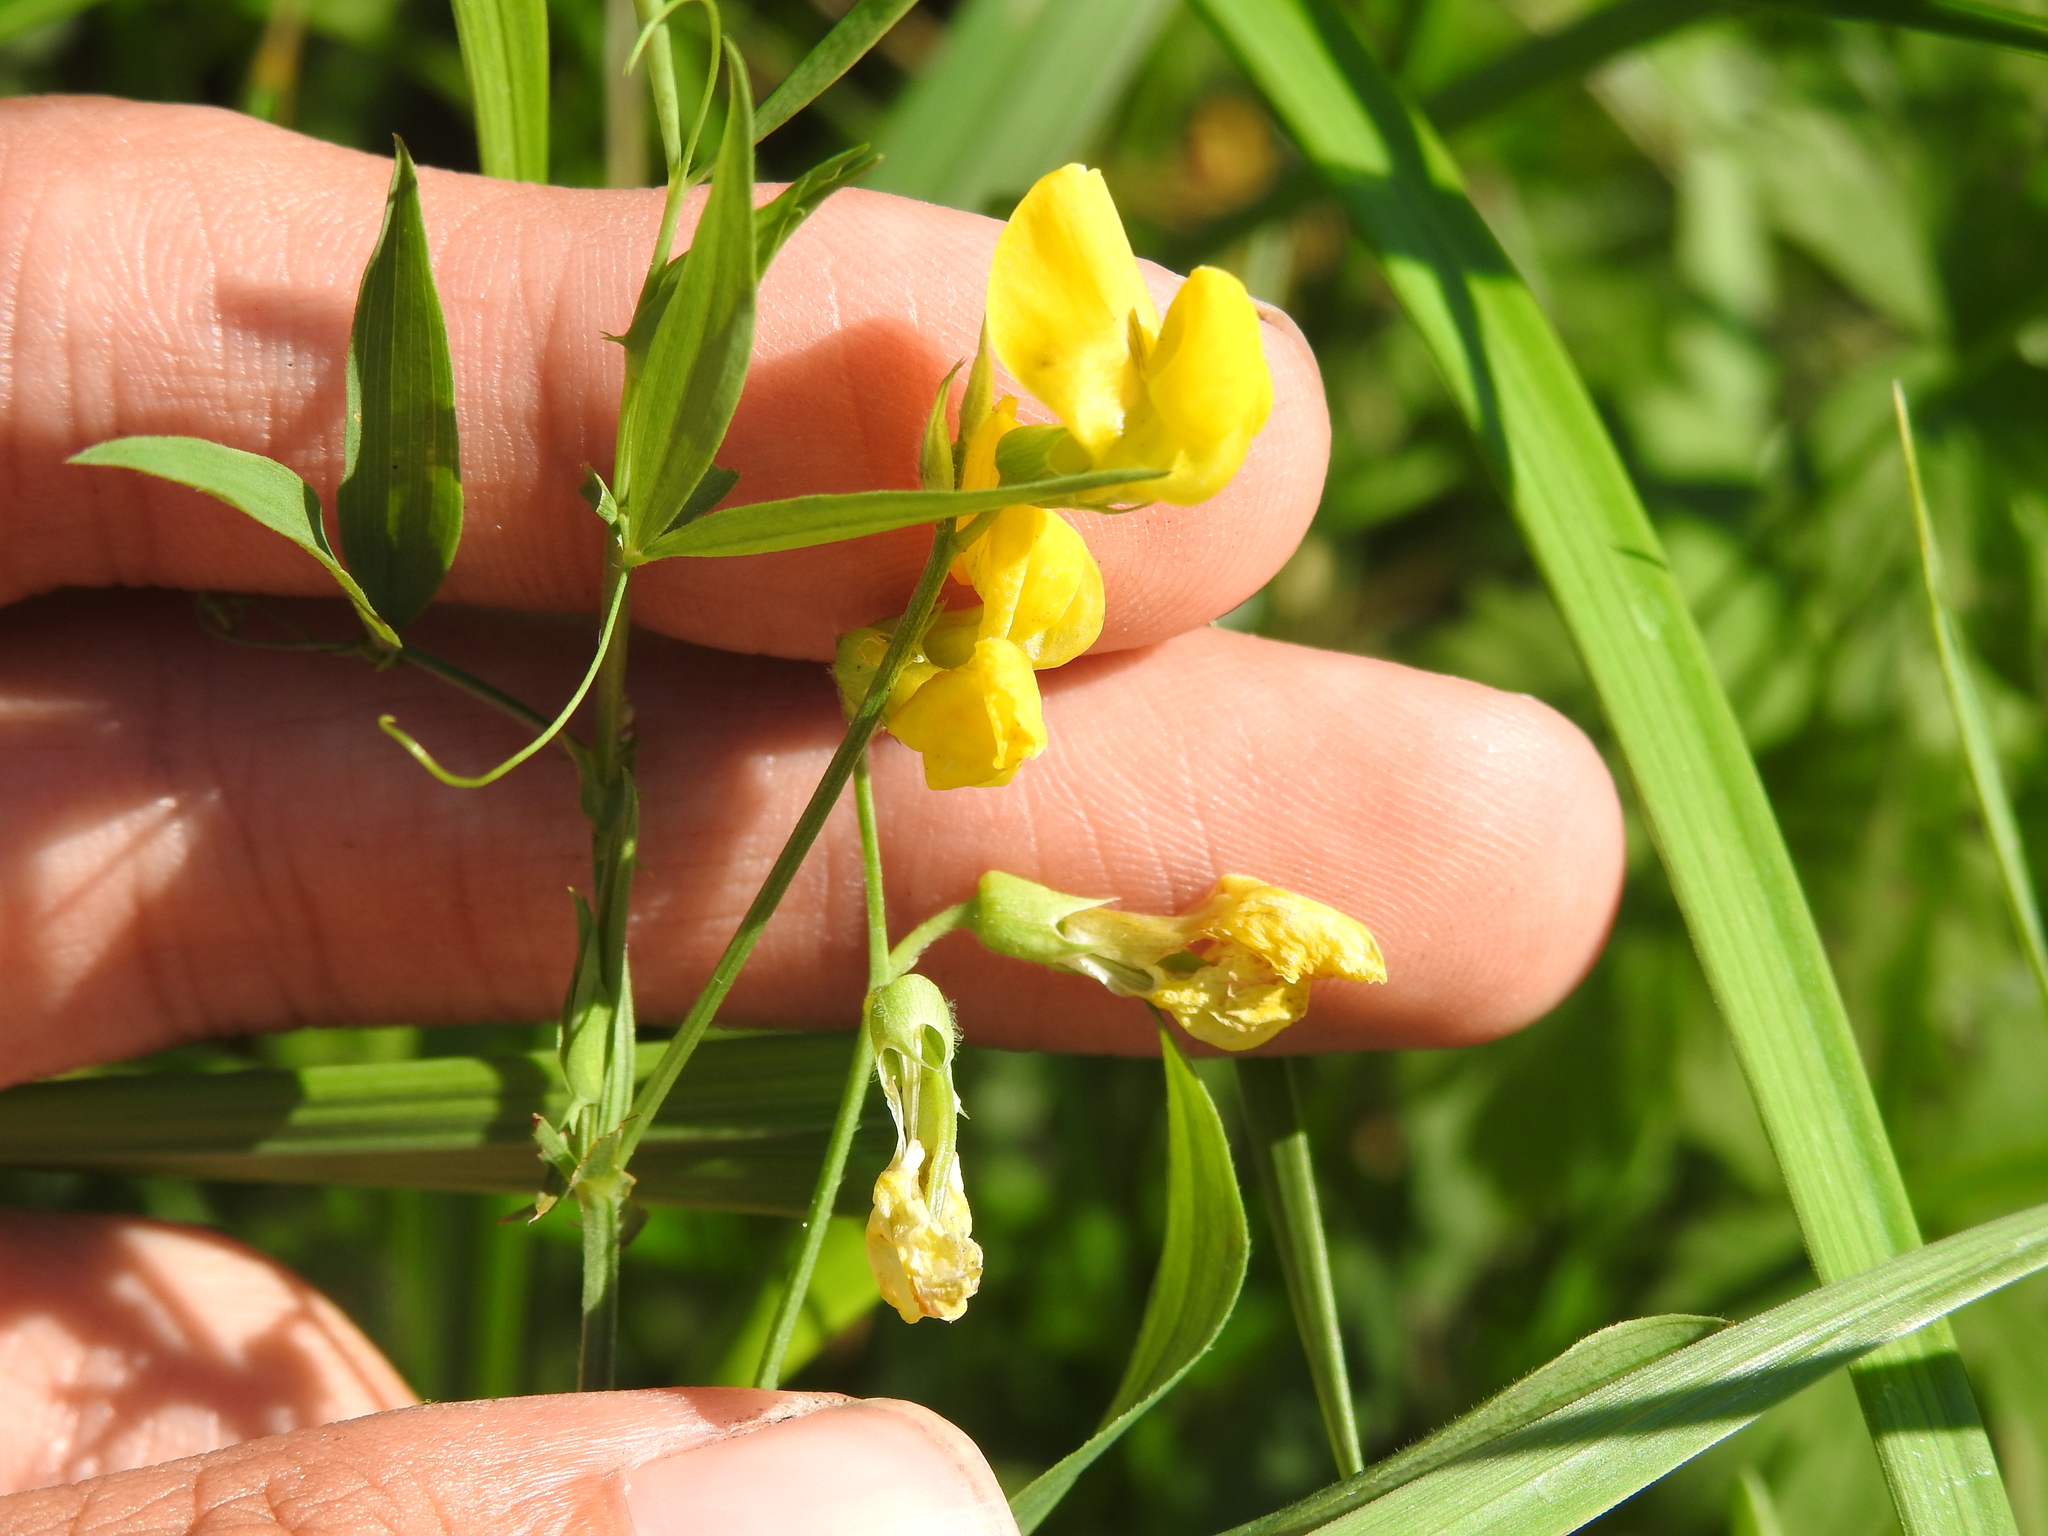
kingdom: Plantae
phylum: Tracheophyta
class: Magnoliopsida
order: Fabales
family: Fabaceae
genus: Lathyrus
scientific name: Lathyrus pratensis
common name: Meadow vetchling
